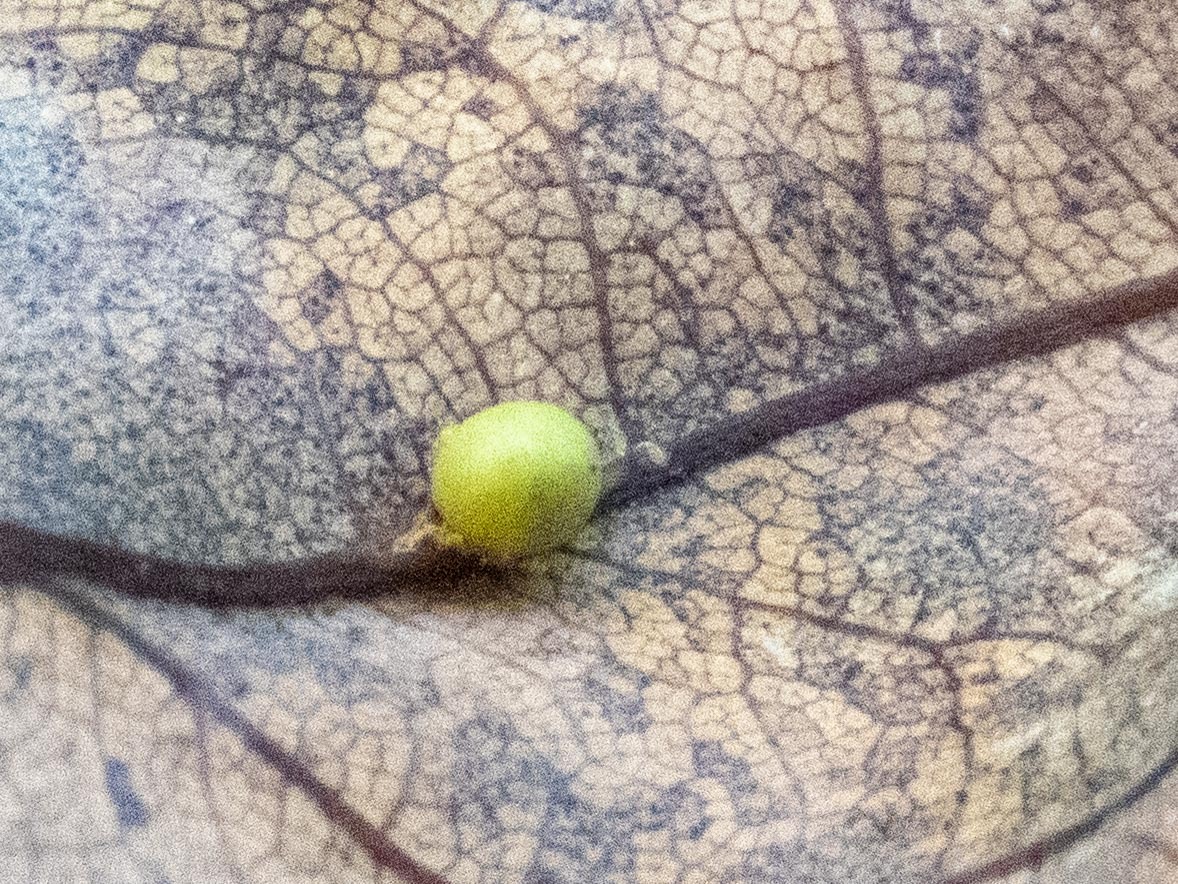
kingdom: Animalia
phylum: Arthropoda
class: Insecta
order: Hymenoptera
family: Cynipidae
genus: Neuroterus
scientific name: Neuroterus anthracinus
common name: Oyster gall
